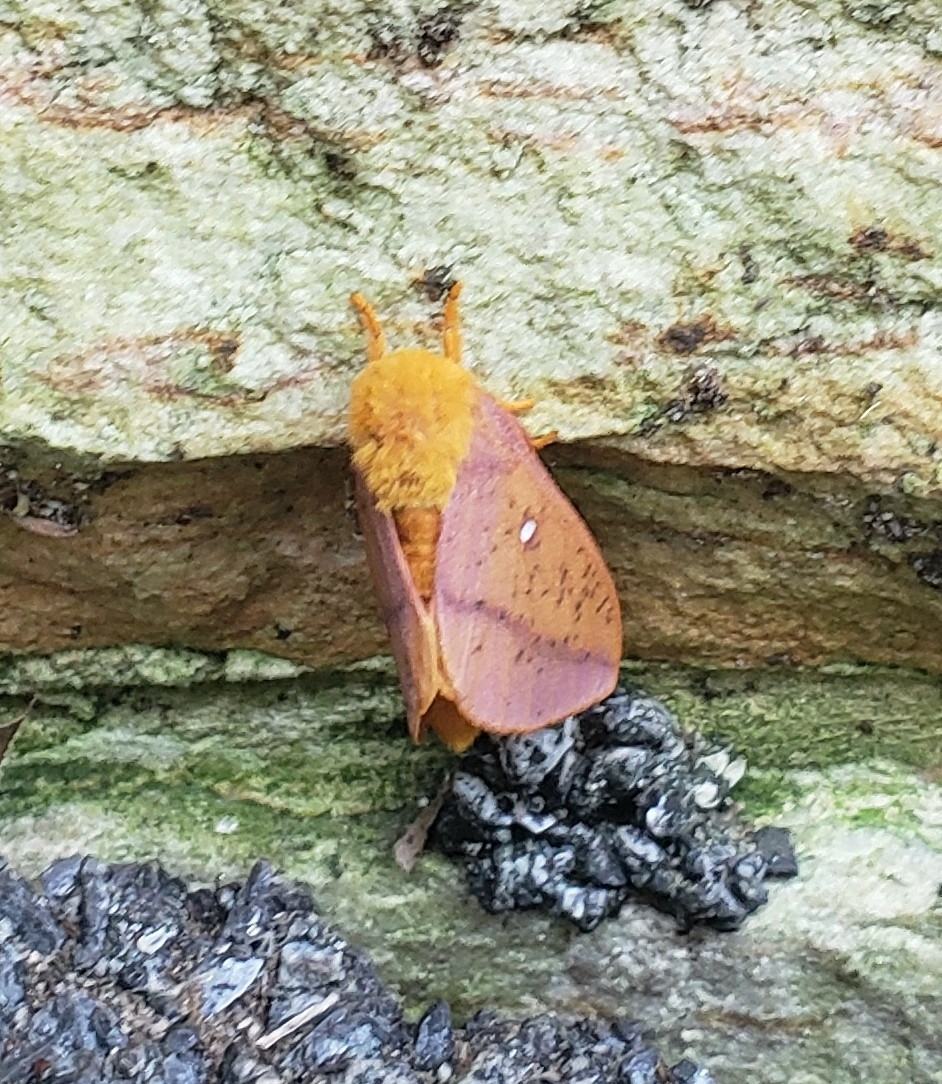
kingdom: Animalia
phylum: Arthropoda
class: Insecta
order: Lepidoptera
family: Saturniidae
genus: Anisota
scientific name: Anisota senatoria
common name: Orange-striped oakworm moth
